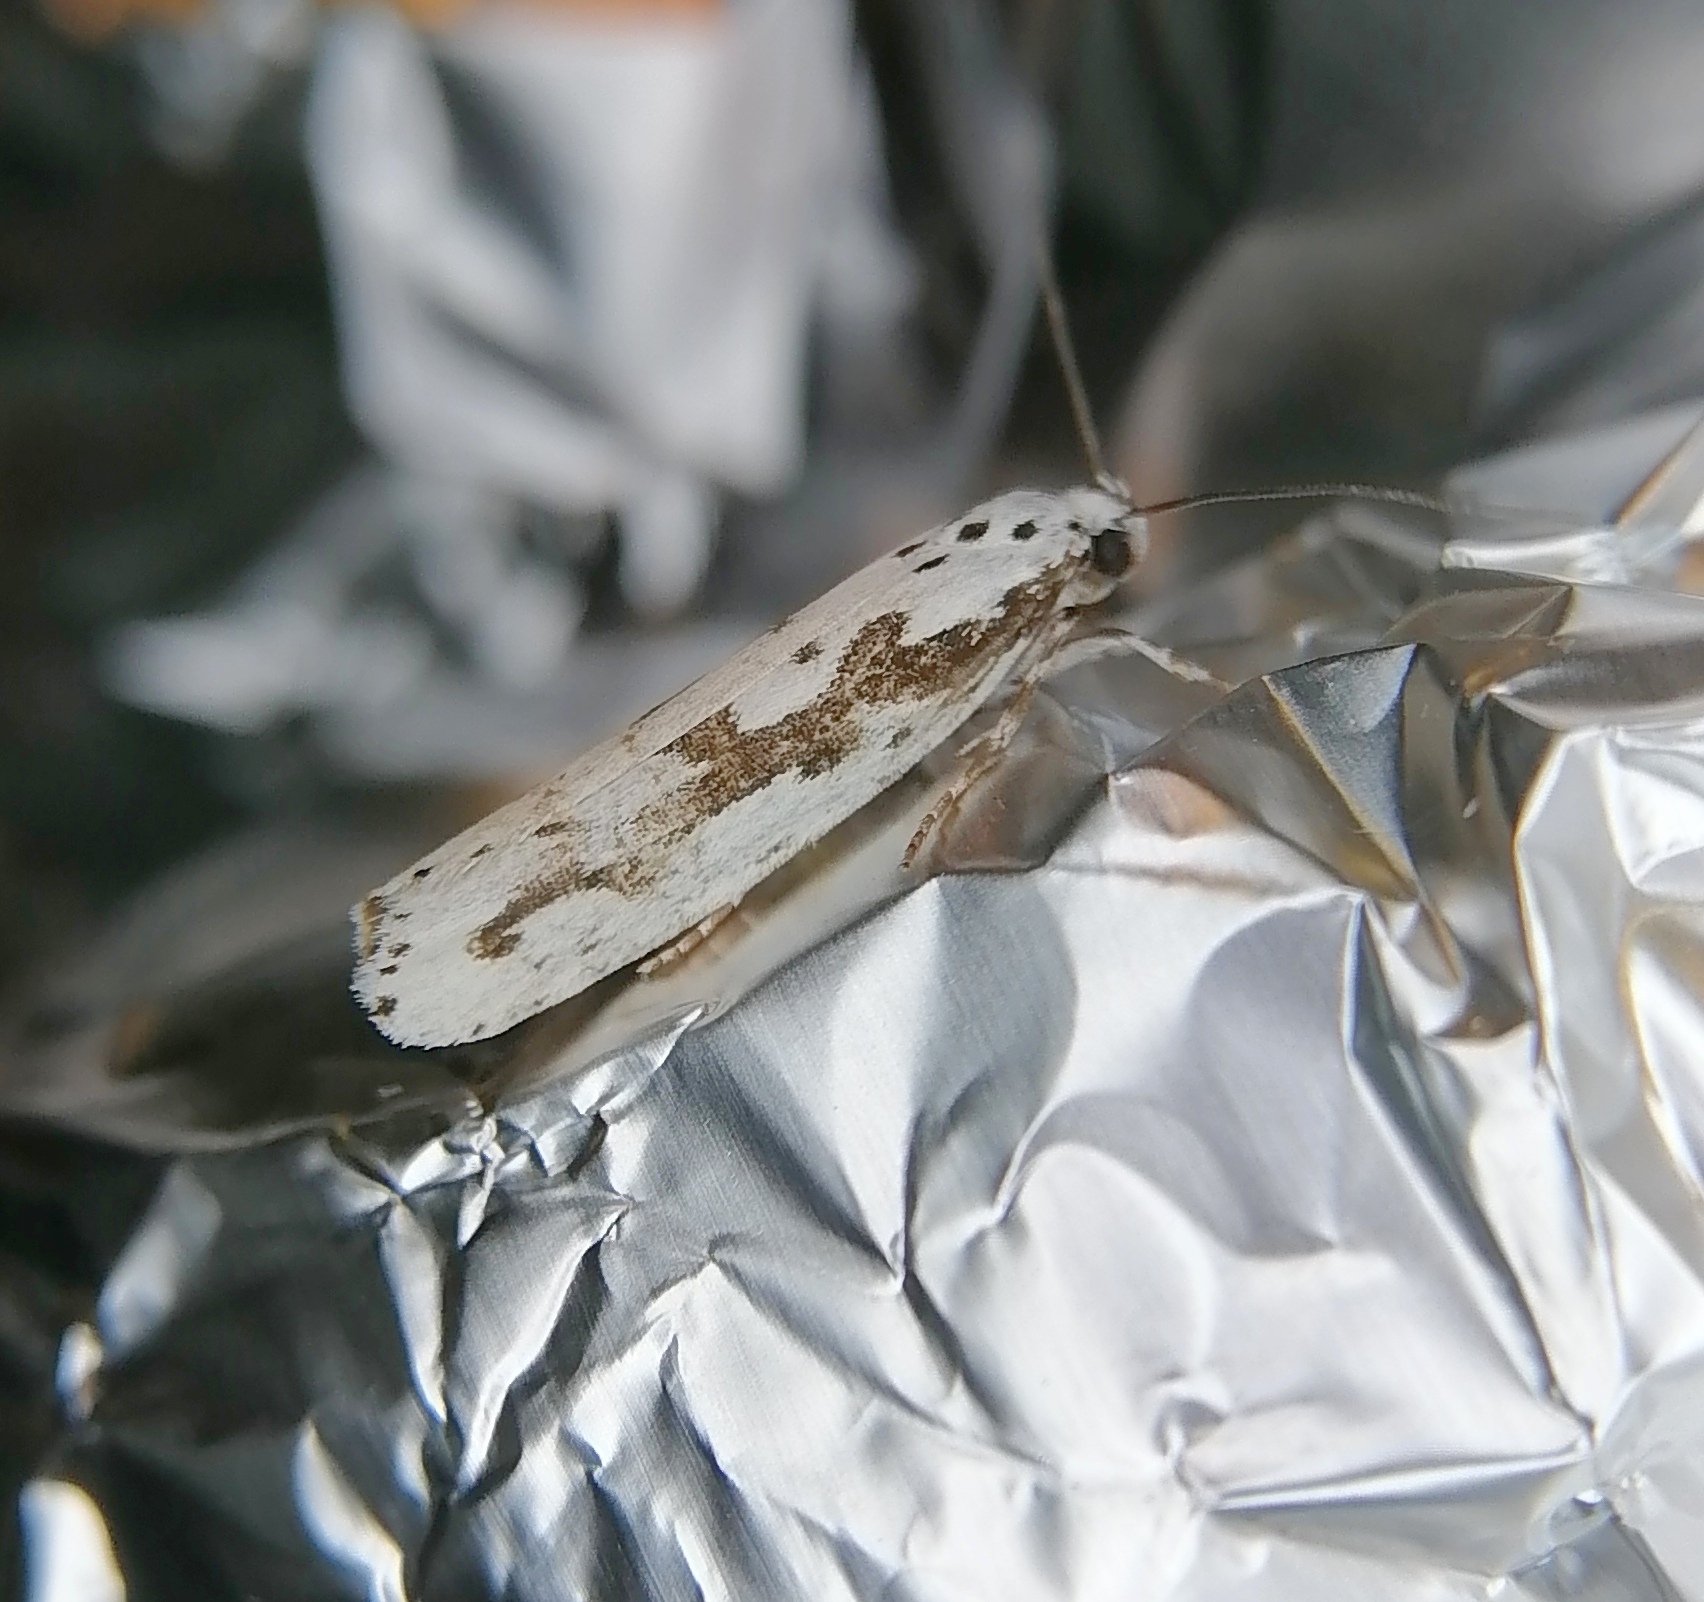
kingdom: Animalia
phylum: Arthropoda
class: Insecta
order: Lepidoptera
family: Ethmiidae
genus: Ethmia
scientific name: Ethmia pusiella
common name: Striped ermel
